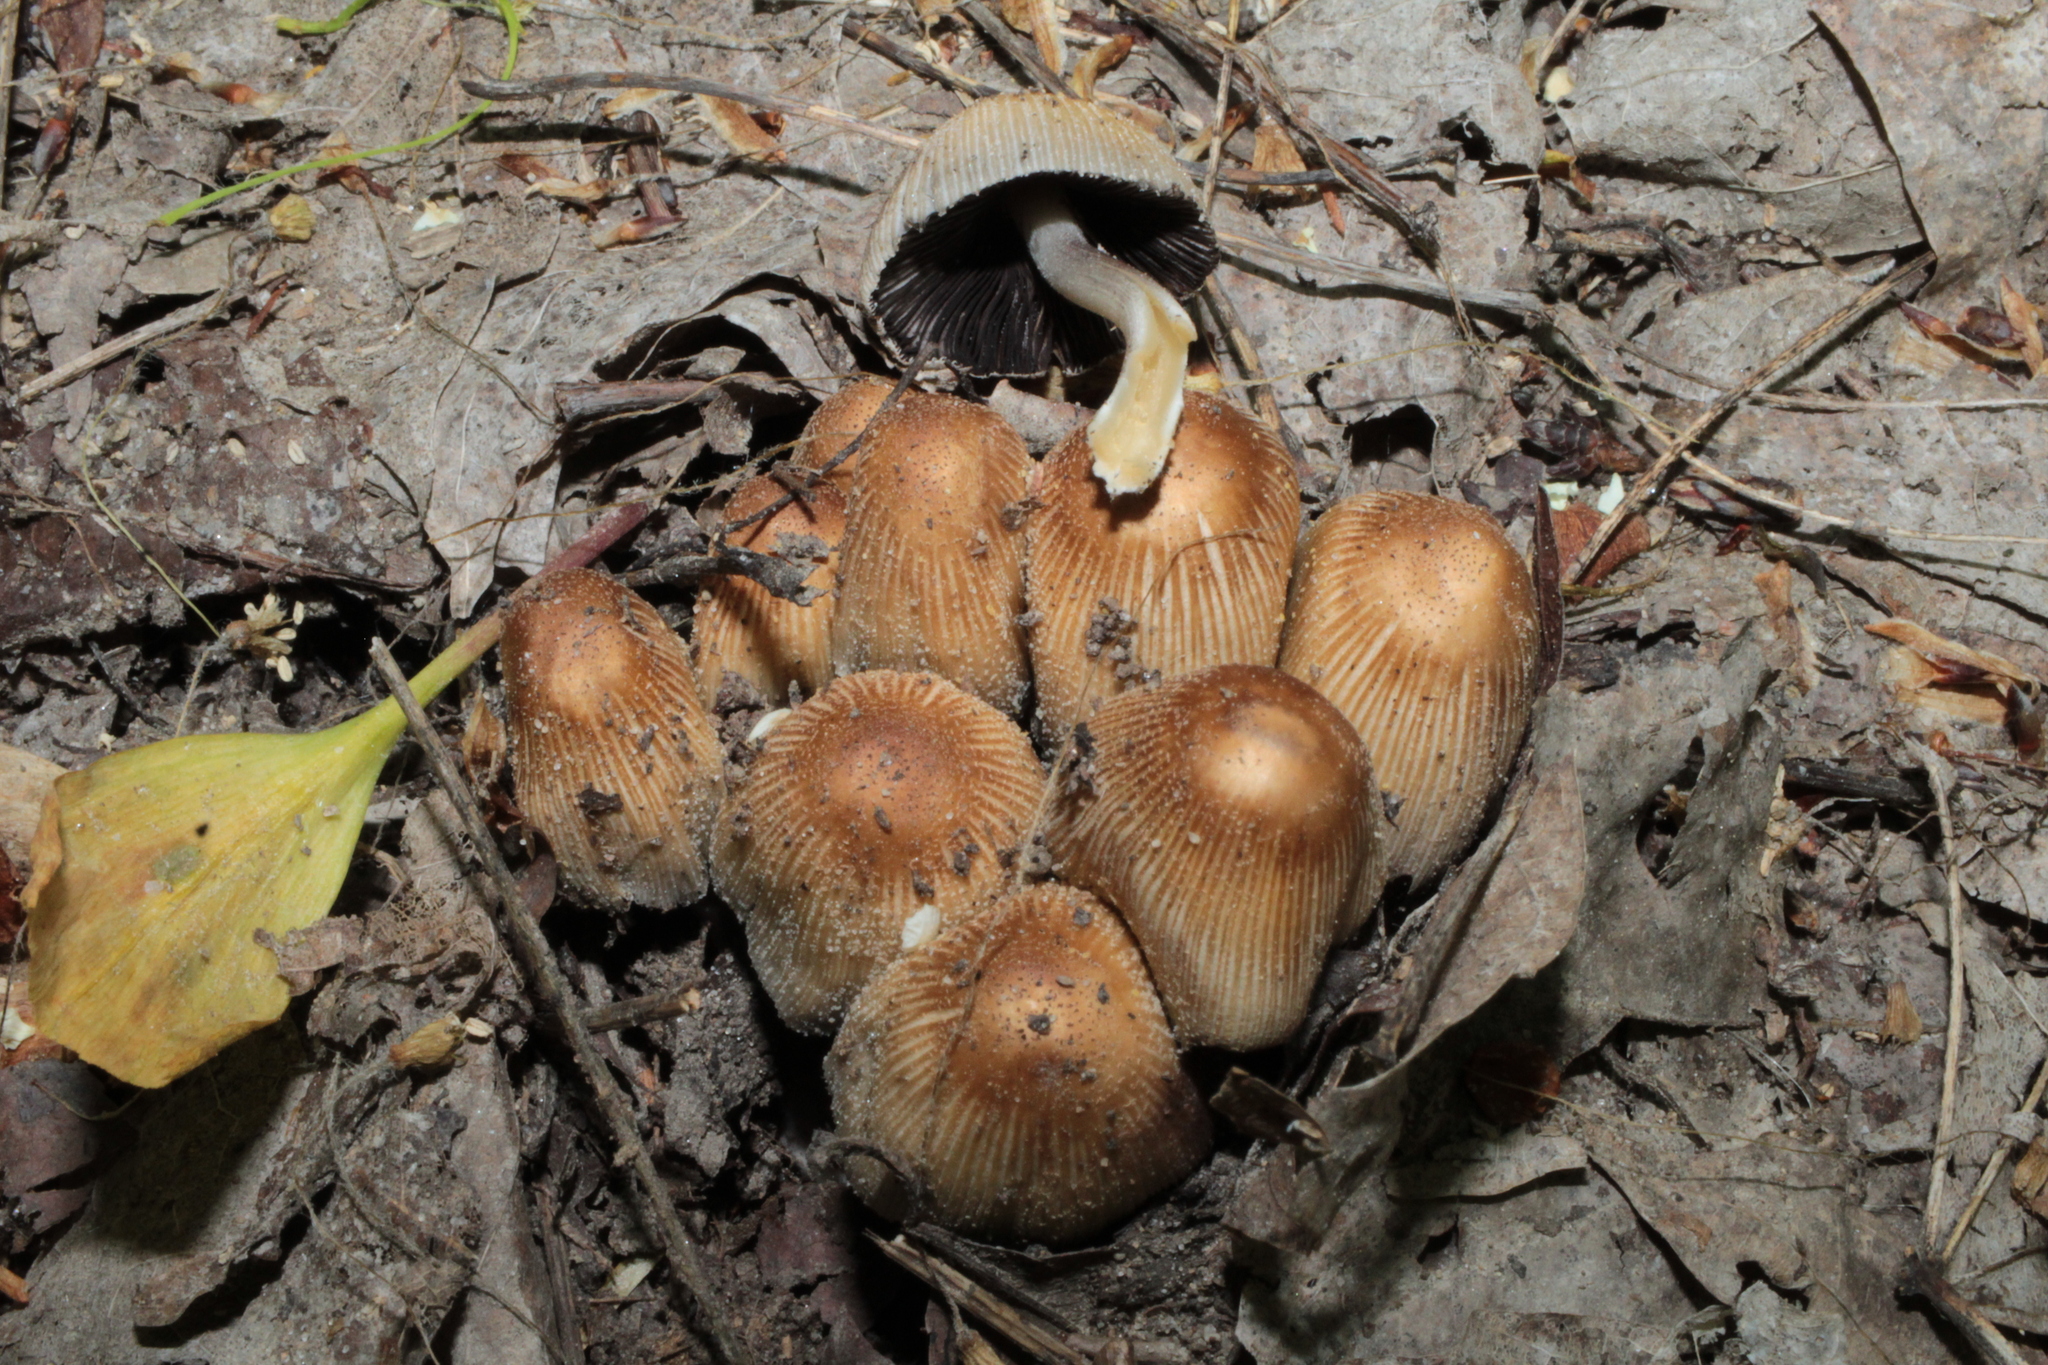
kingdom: Fungi
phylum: Basidiomycota
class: Agaricomycetes
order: Agaricales
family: Psathyrellaceae
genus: Coprinellus
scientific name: Coprinellus micaceus
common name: Glistening ink-cap
